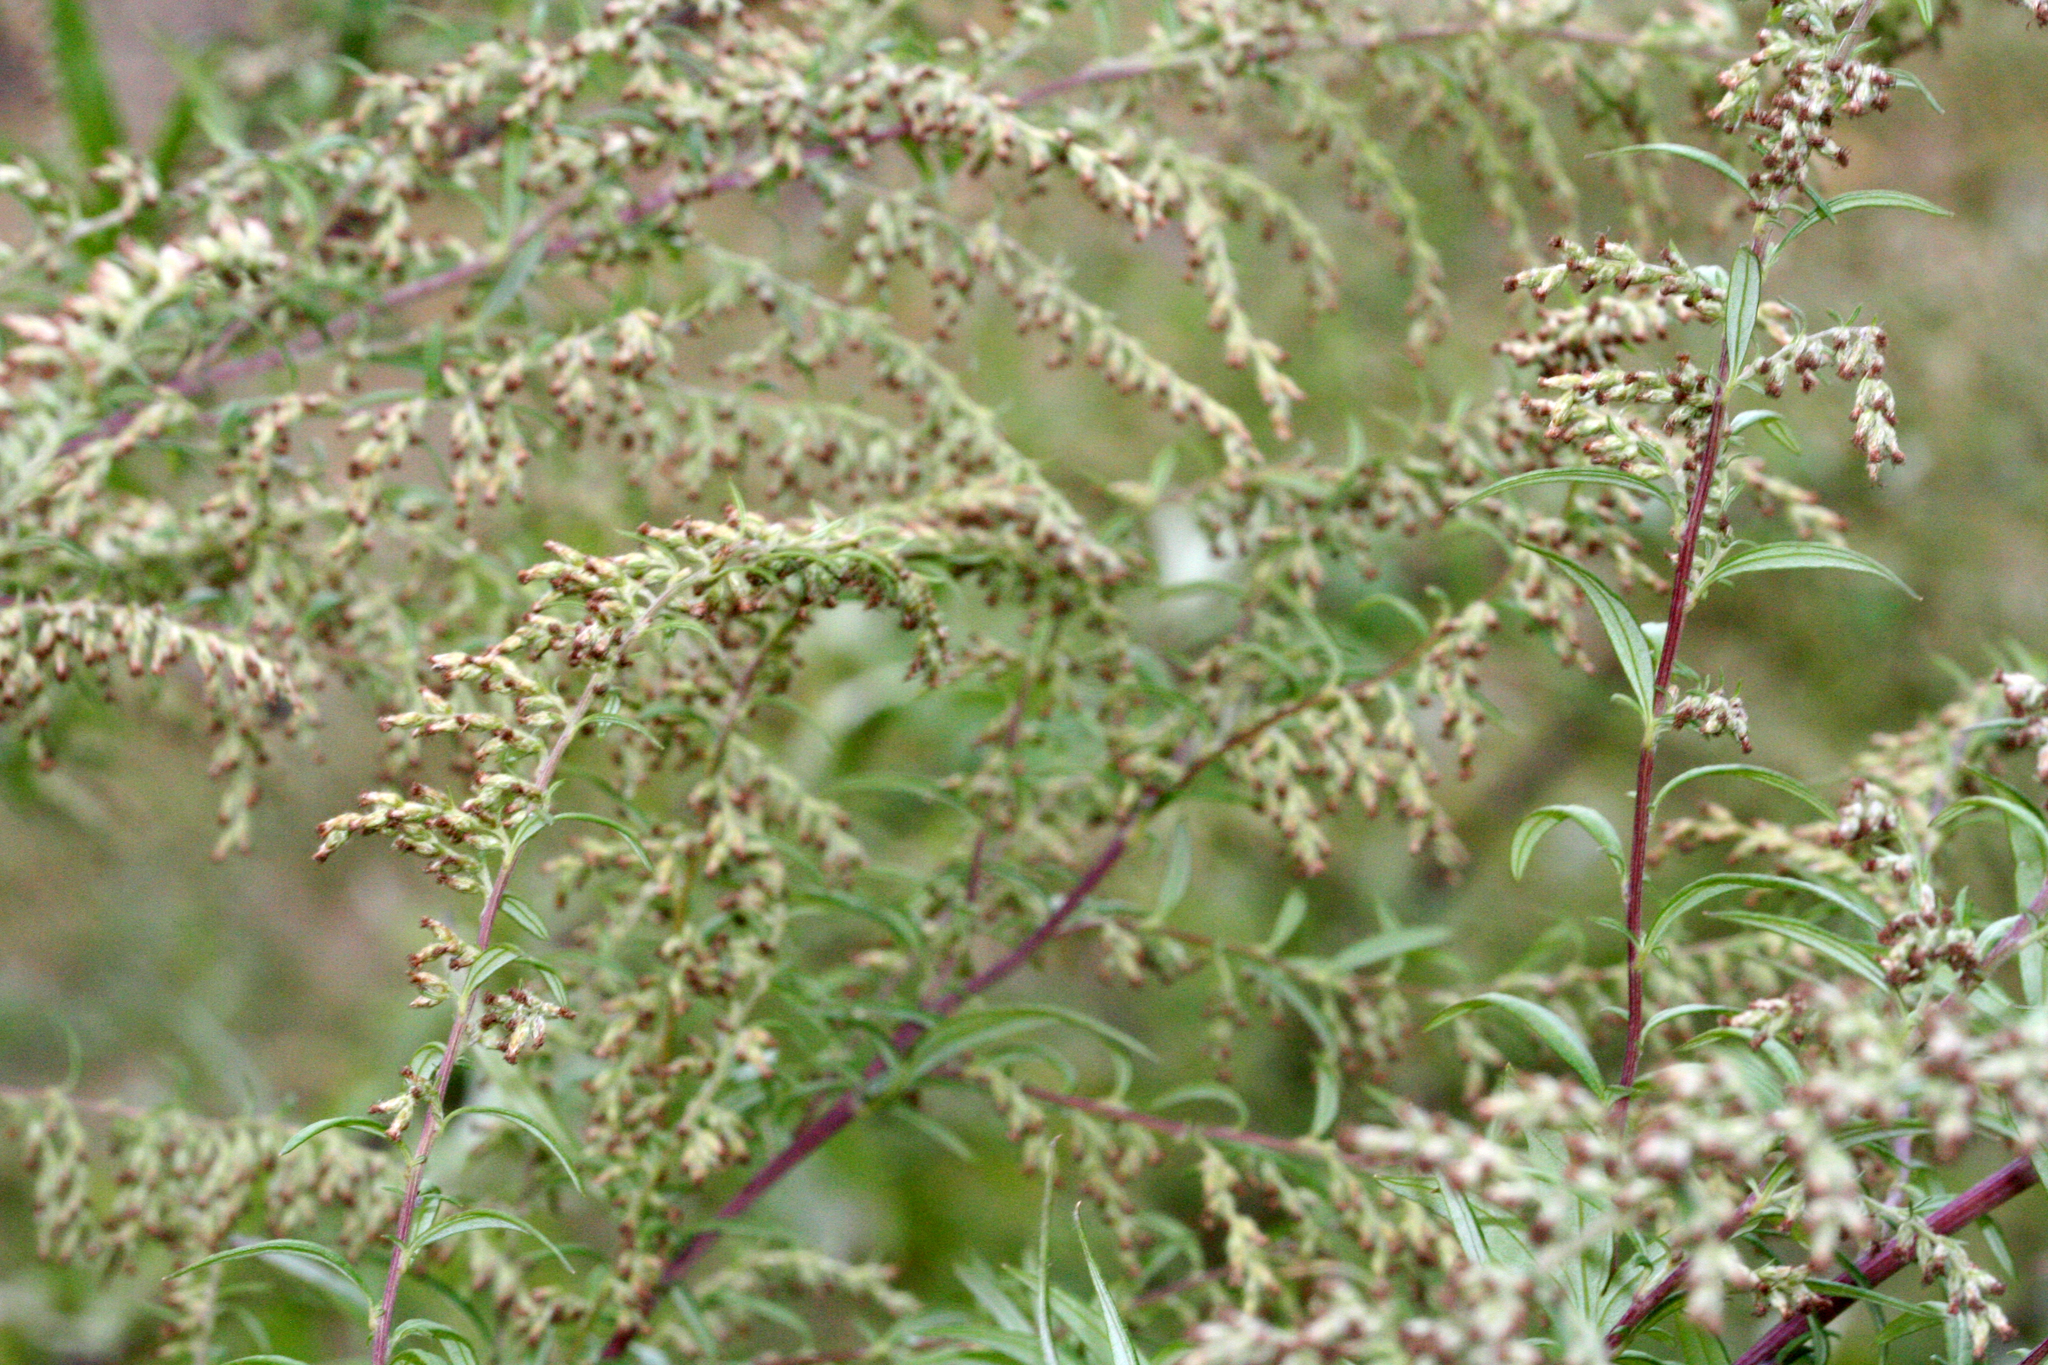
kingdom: Plantae
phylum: Tracheophyta
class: Magnoliopsida
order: Asterales
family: Asteraceae
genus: Artemisia
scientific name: Artemisia vulgaris
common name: Mugwort
